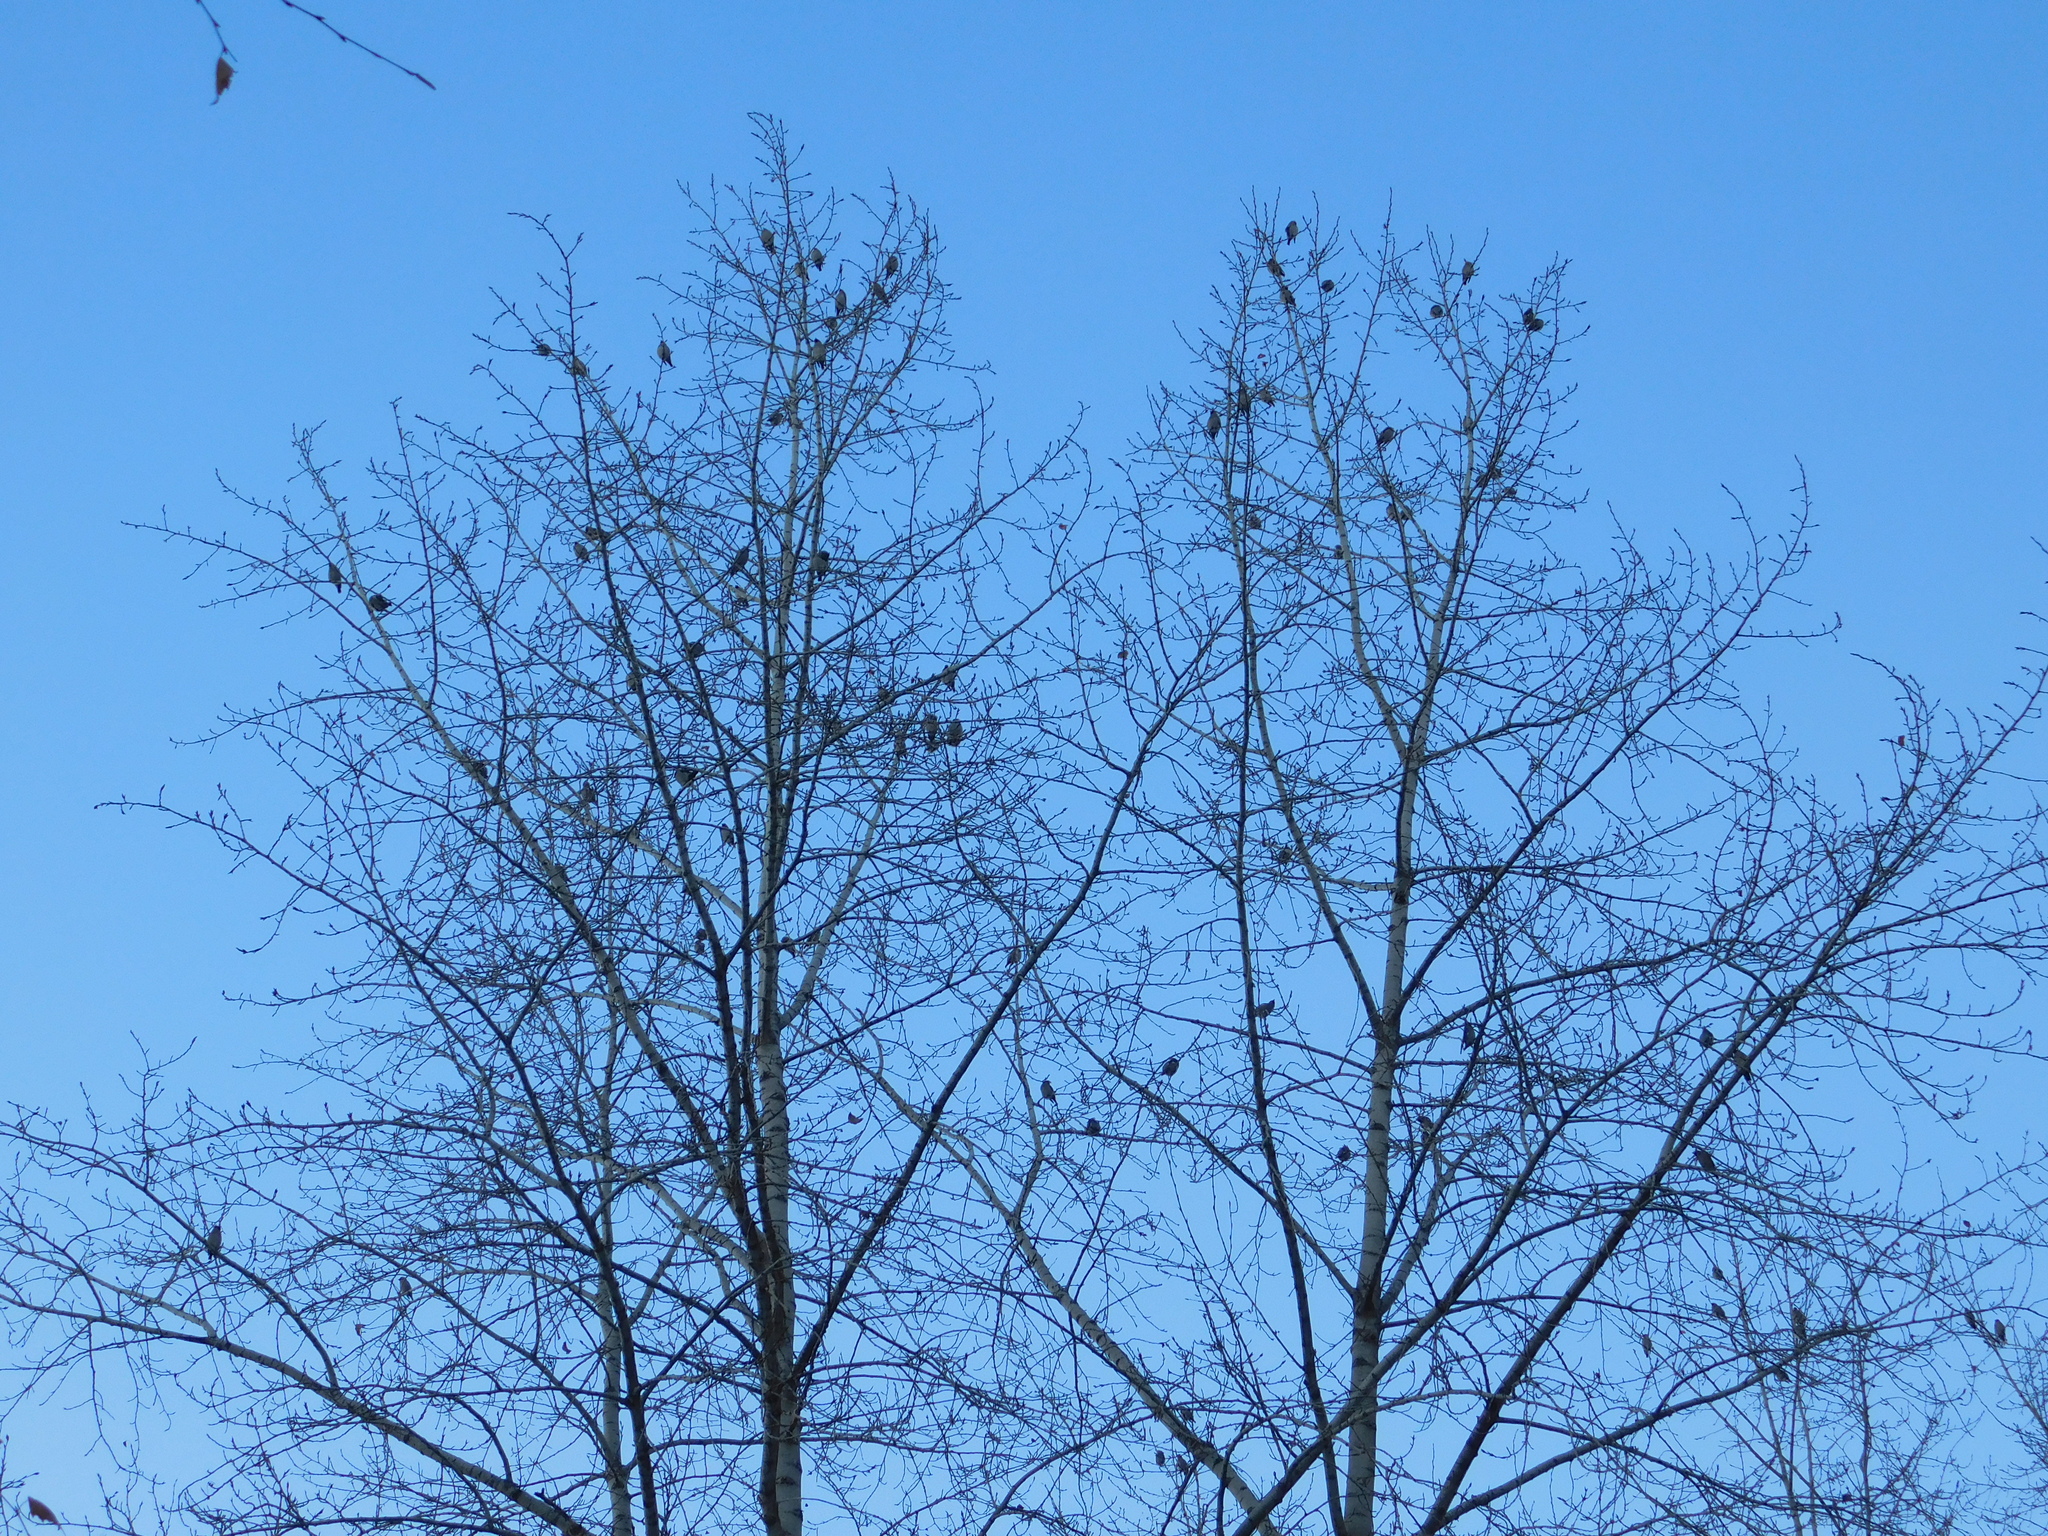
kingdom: Animalia
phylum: Chordata
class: Aves
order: Passeriformes
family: Bombycillidae
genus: Bombycilla
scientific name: Bombycilla garrulus
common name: Bohemian waxwing
